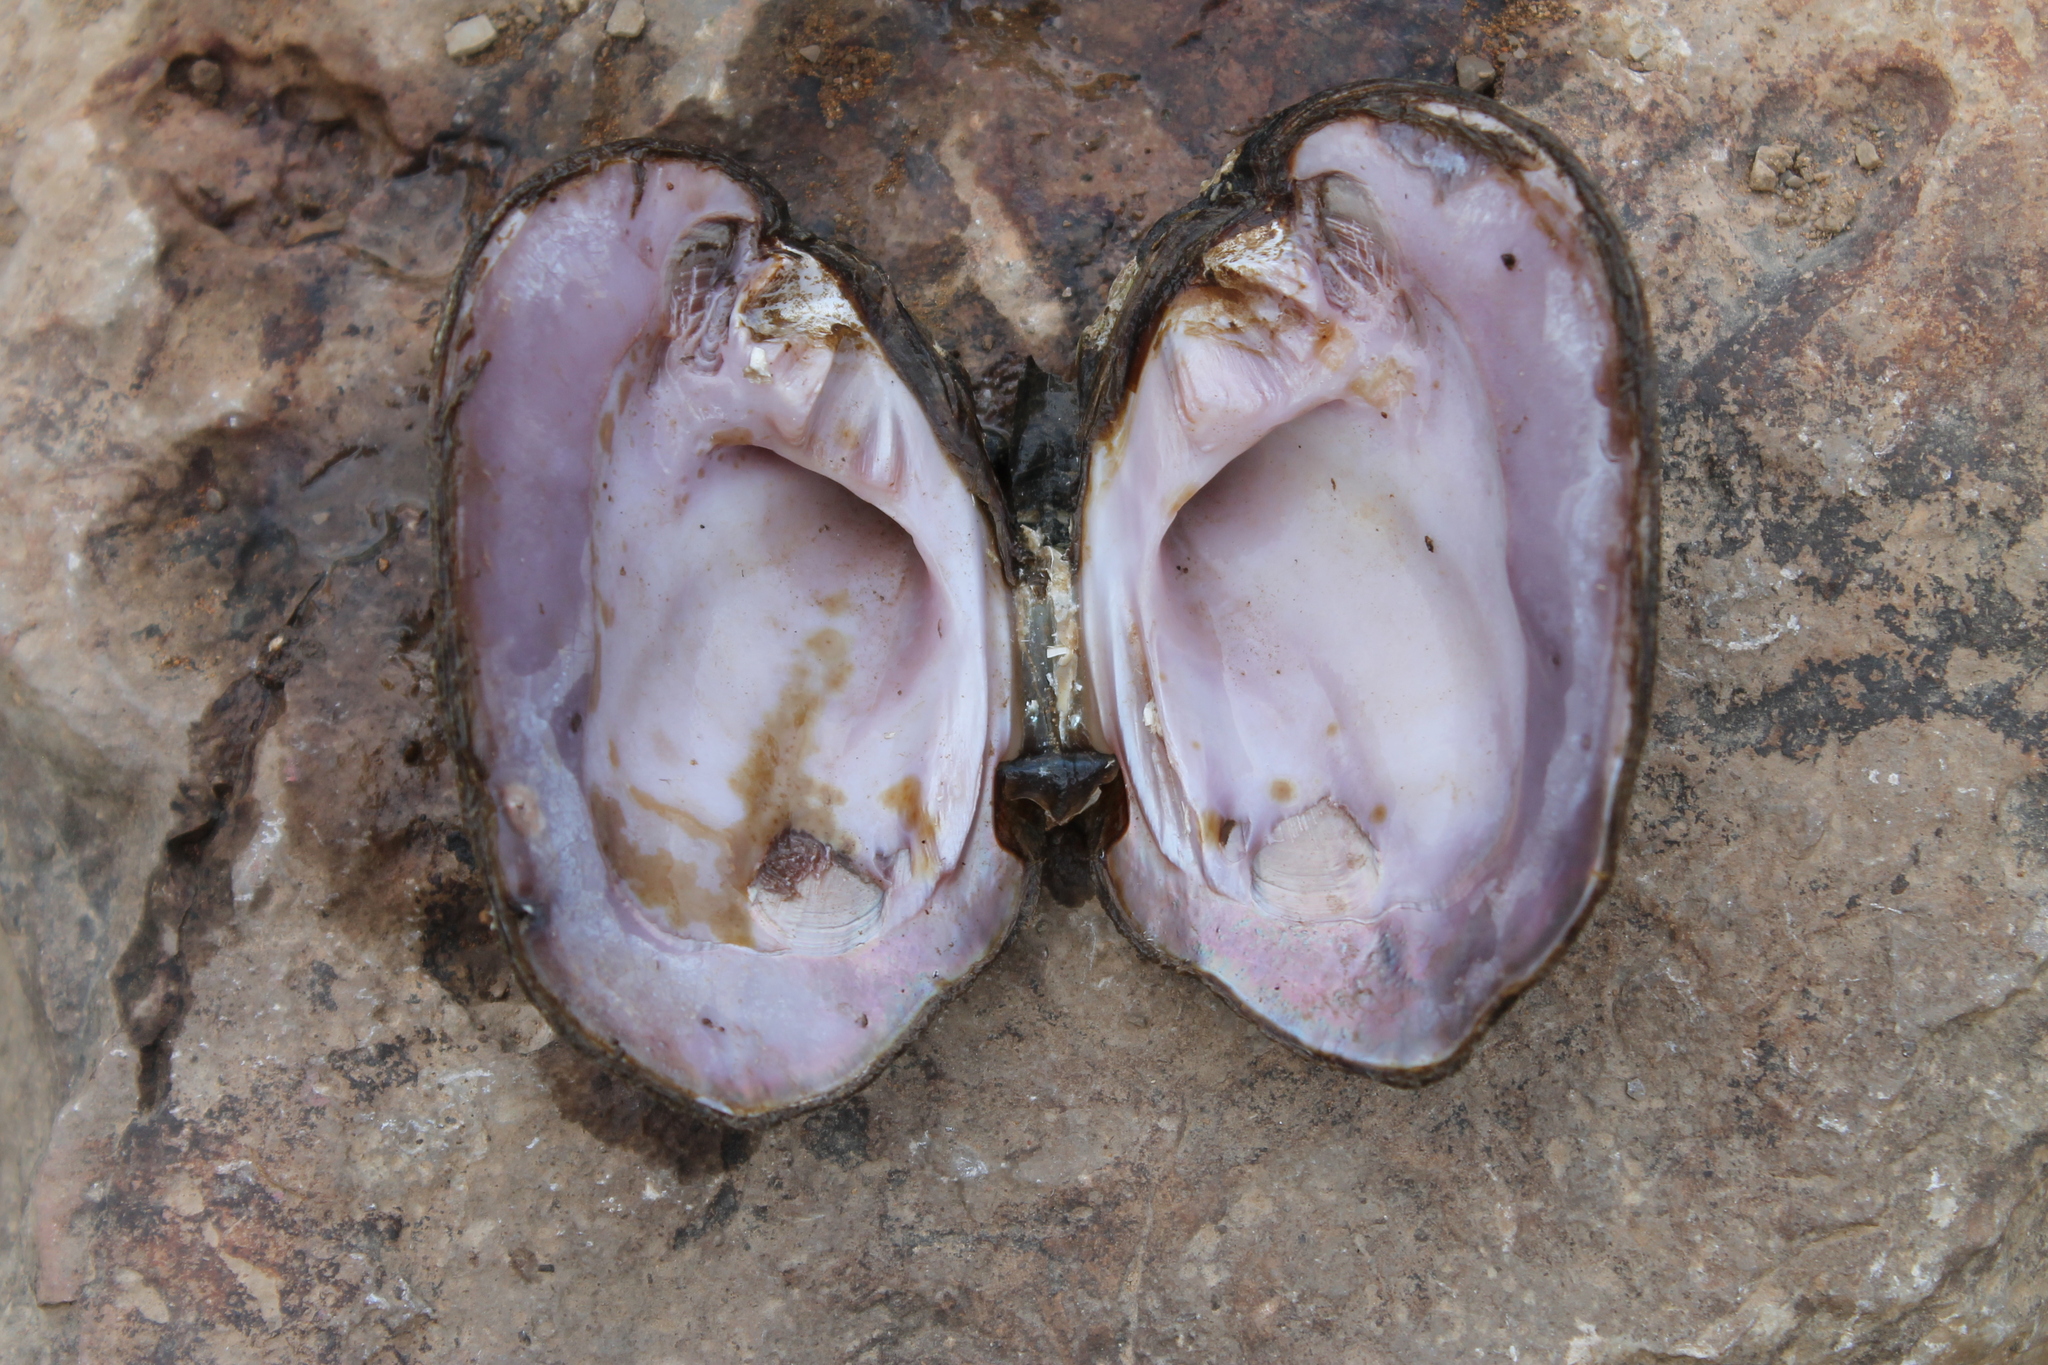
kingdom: Animalia
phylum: Mollusca
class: Bivalvia
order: Unionida
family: Unionidae
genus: Cyclonaias
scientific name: Cyclonaias tuberculata
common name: Purple wartyback
